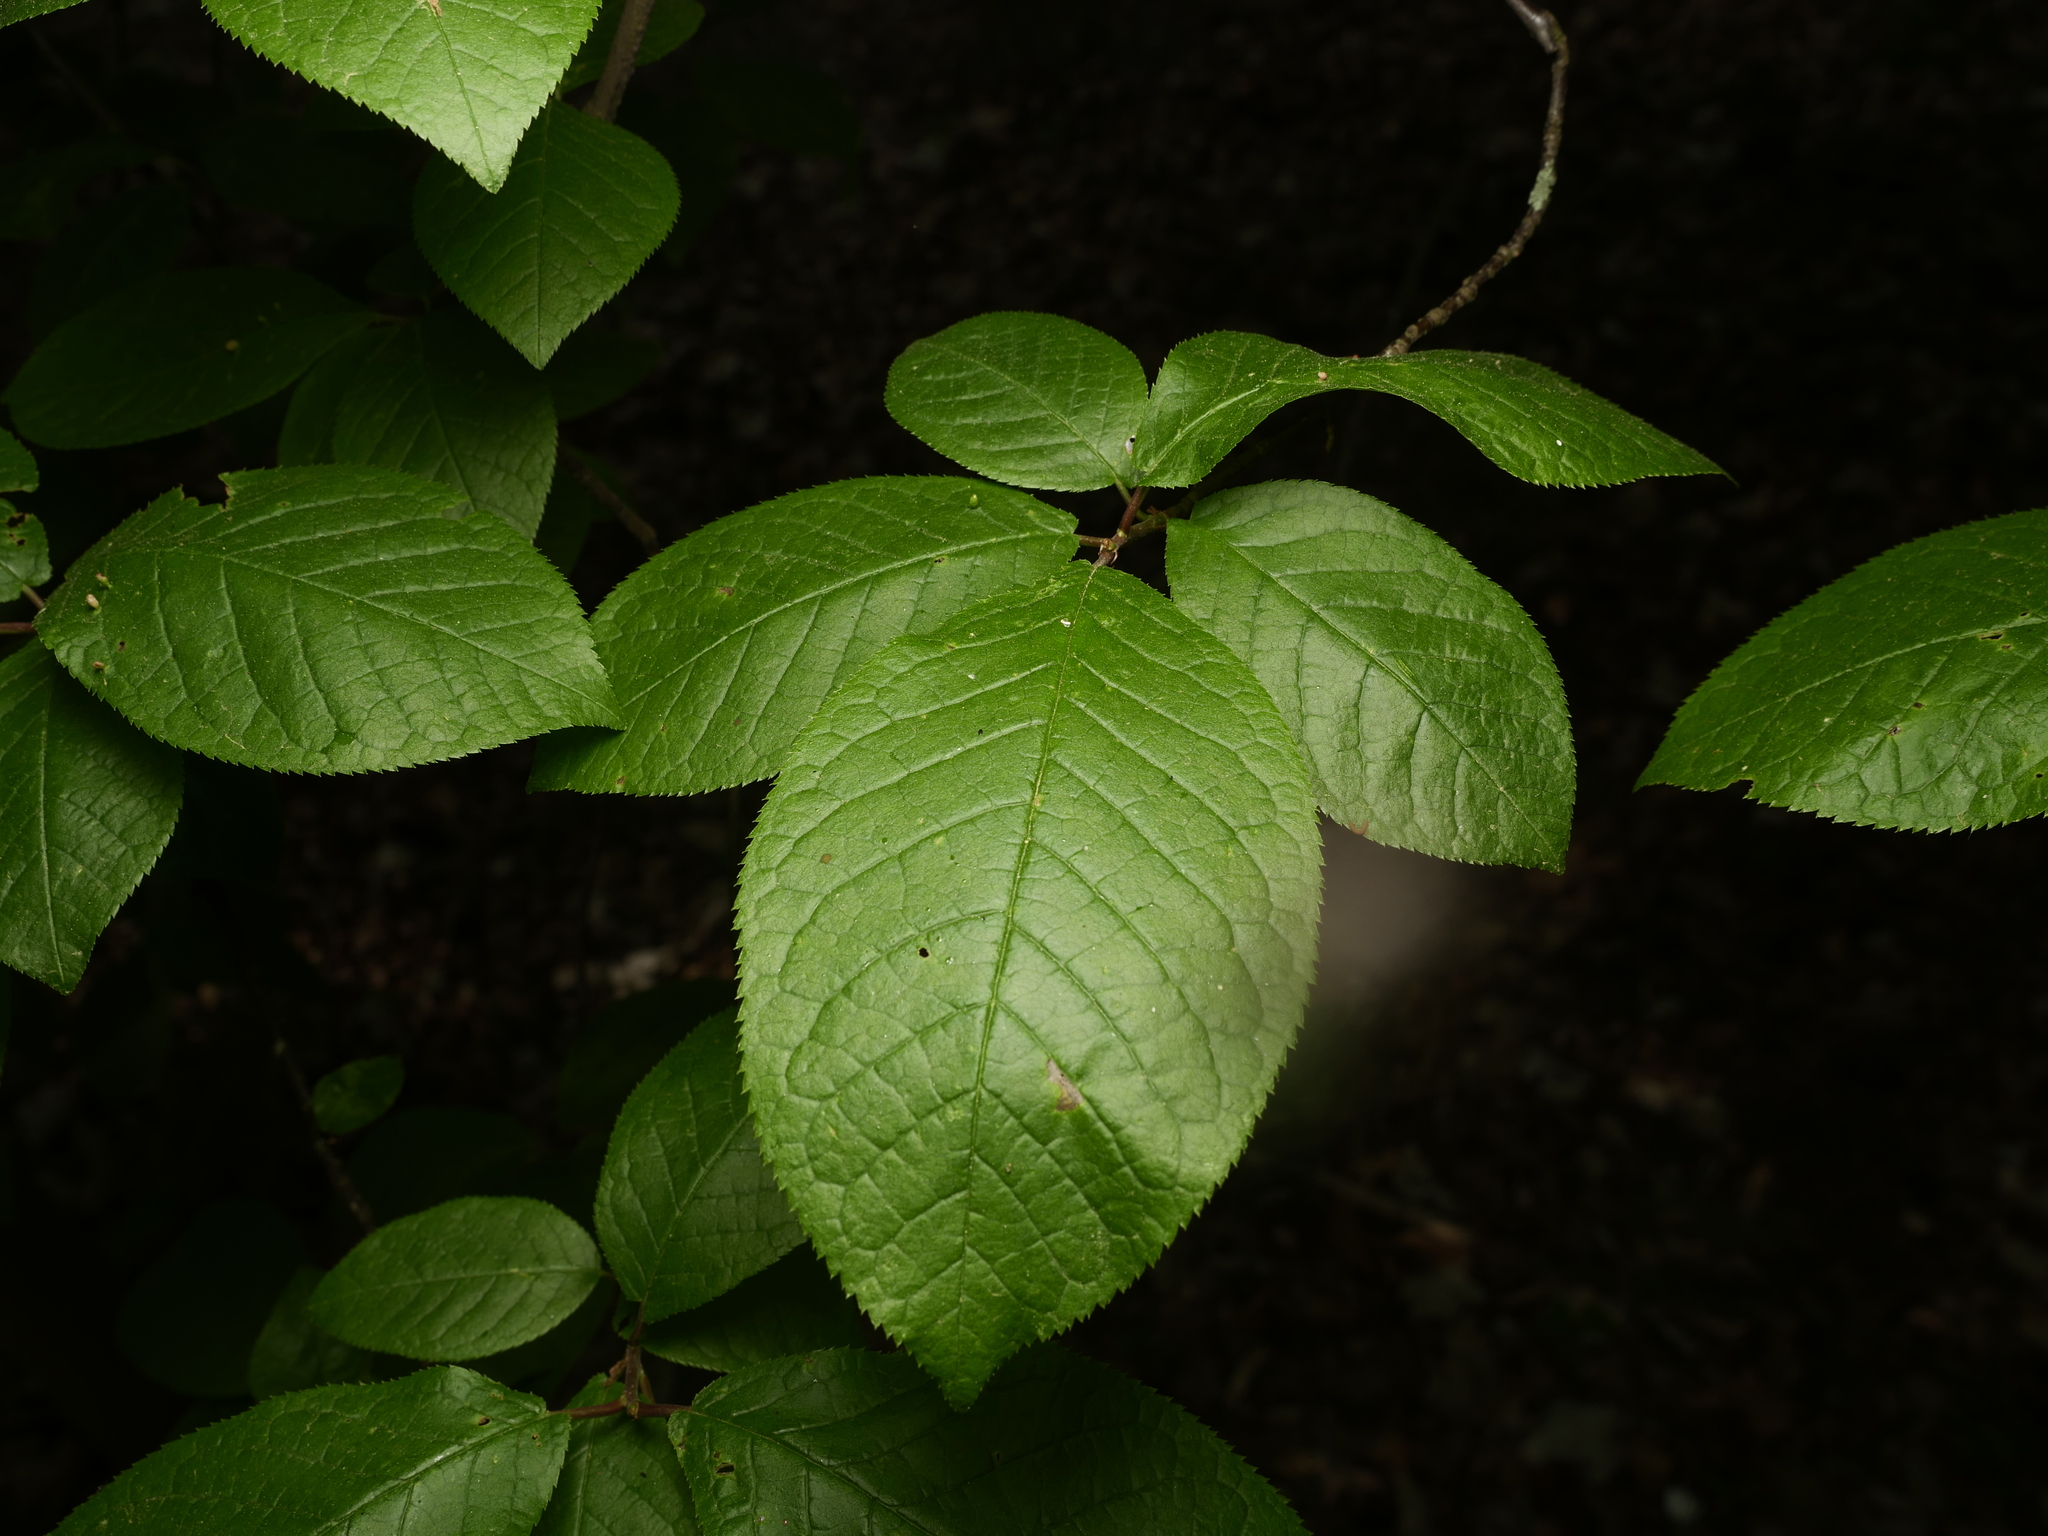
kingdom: Plantae
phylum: Tracheophyta
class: Magnoliopsida
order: Rosales
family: Rosaceae
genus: Prunus
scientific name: Prunus padus
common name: Bird cherry
